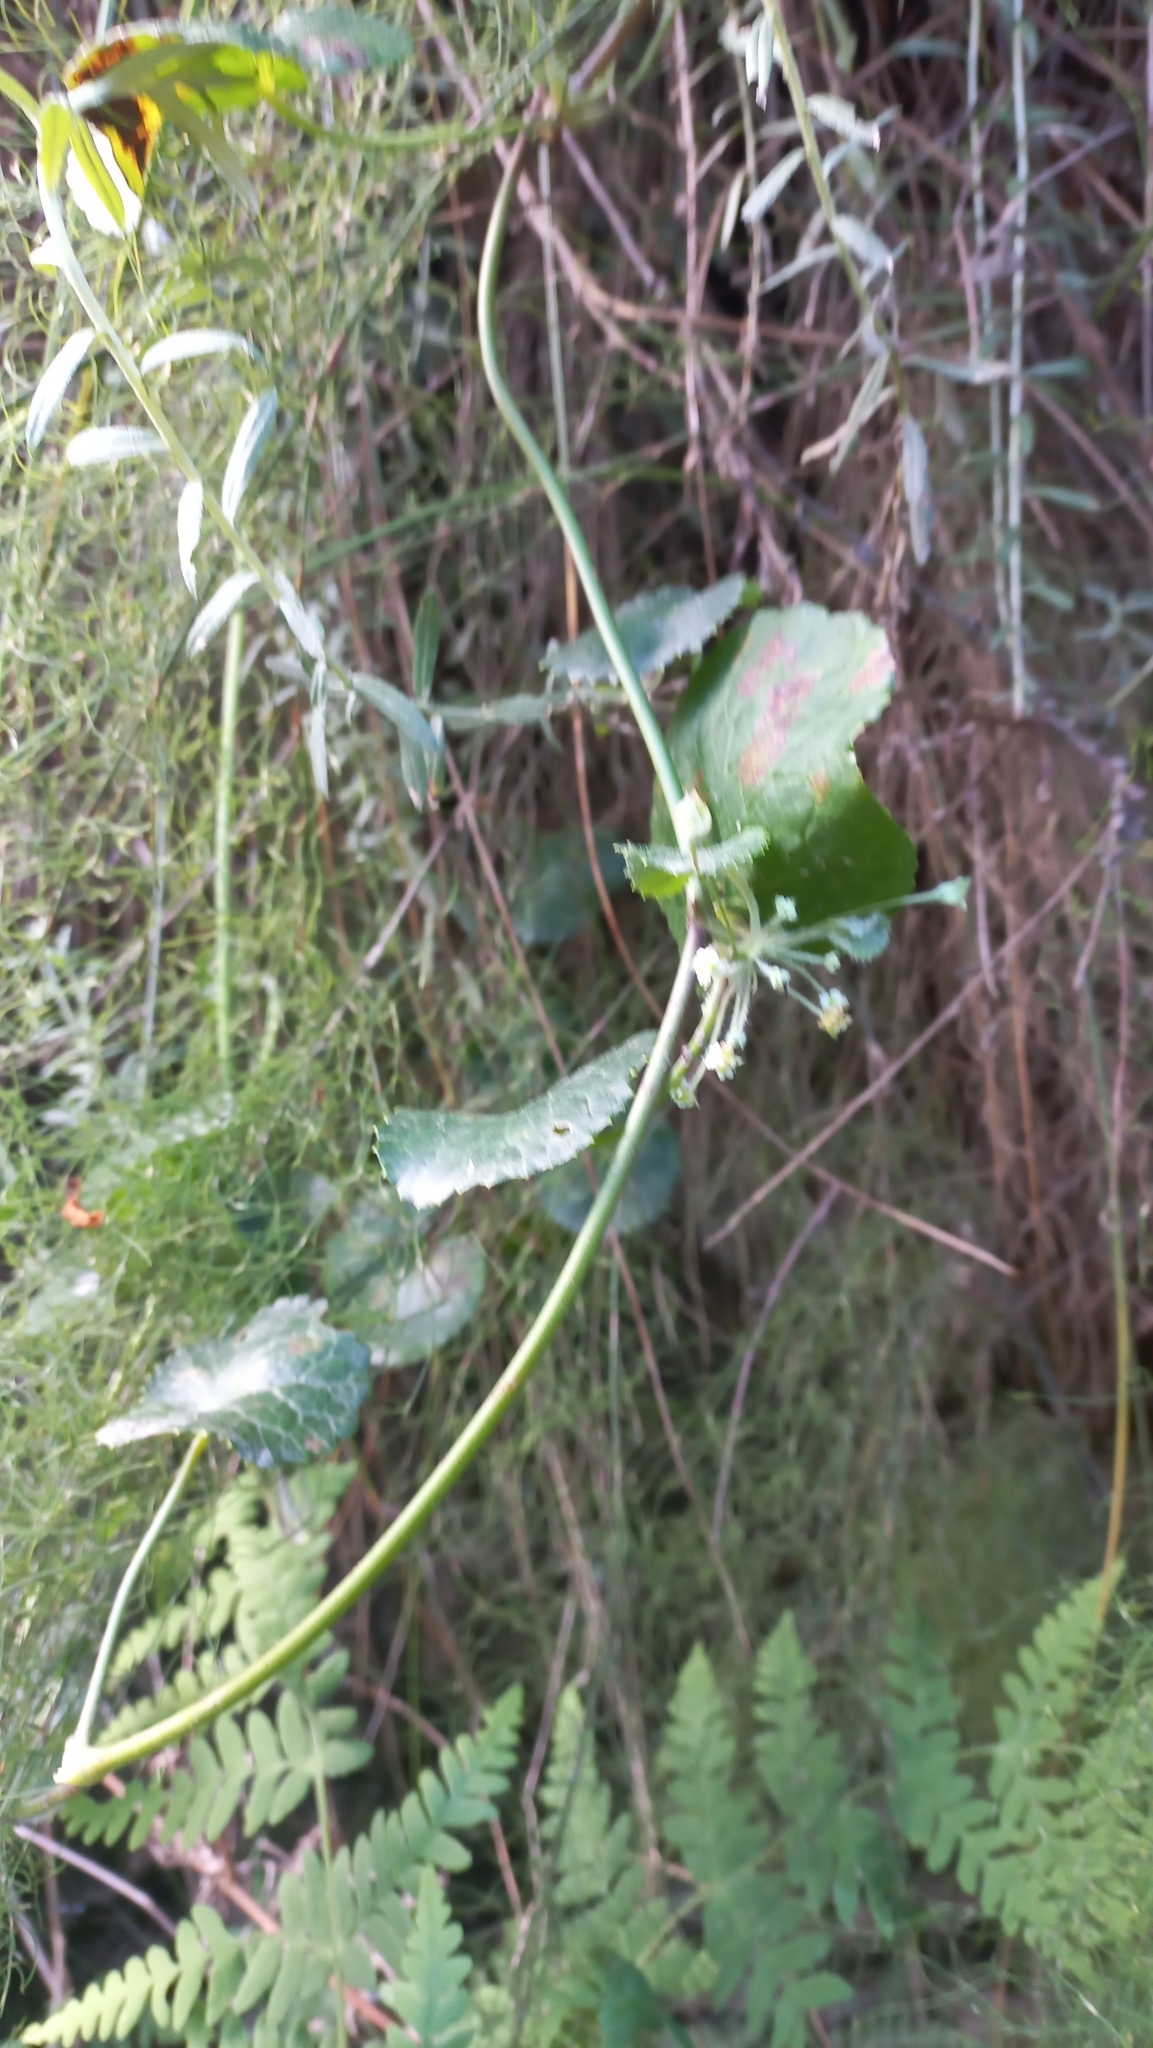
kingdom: Plantae
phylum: Tracheophyta
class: Magnoliopsida
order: Apiales
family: Apiaceae
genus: Centella
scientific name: Centella eriantha
